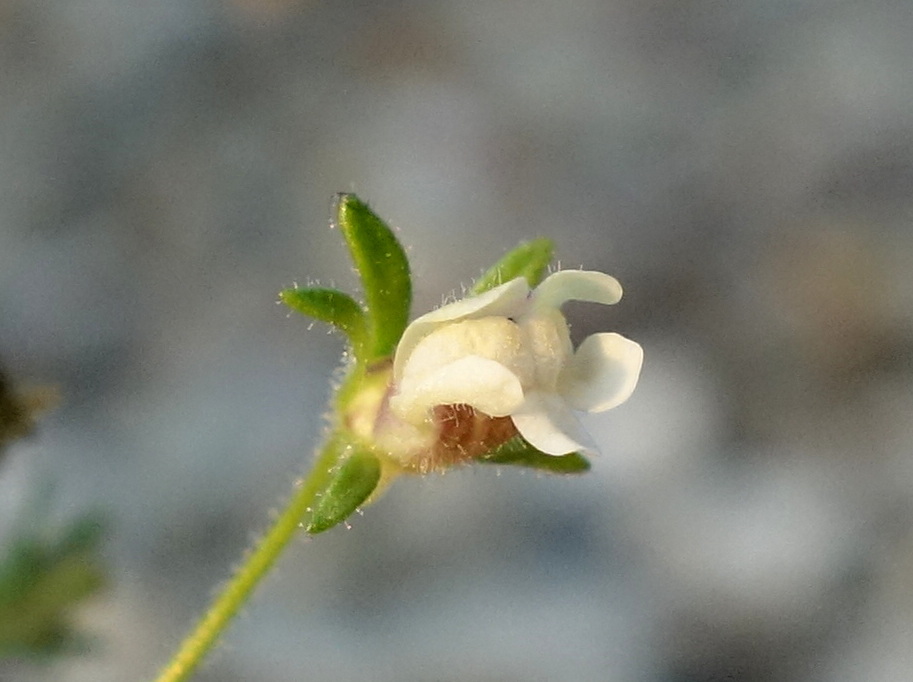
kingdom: Plantae
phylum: Tracheophyta
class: Magnoliopsida
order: Lamiales
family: Plantaginaceae
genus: Chaenorhinum
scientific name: Chaenorhinum minus
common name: Dwarf snapdragon
